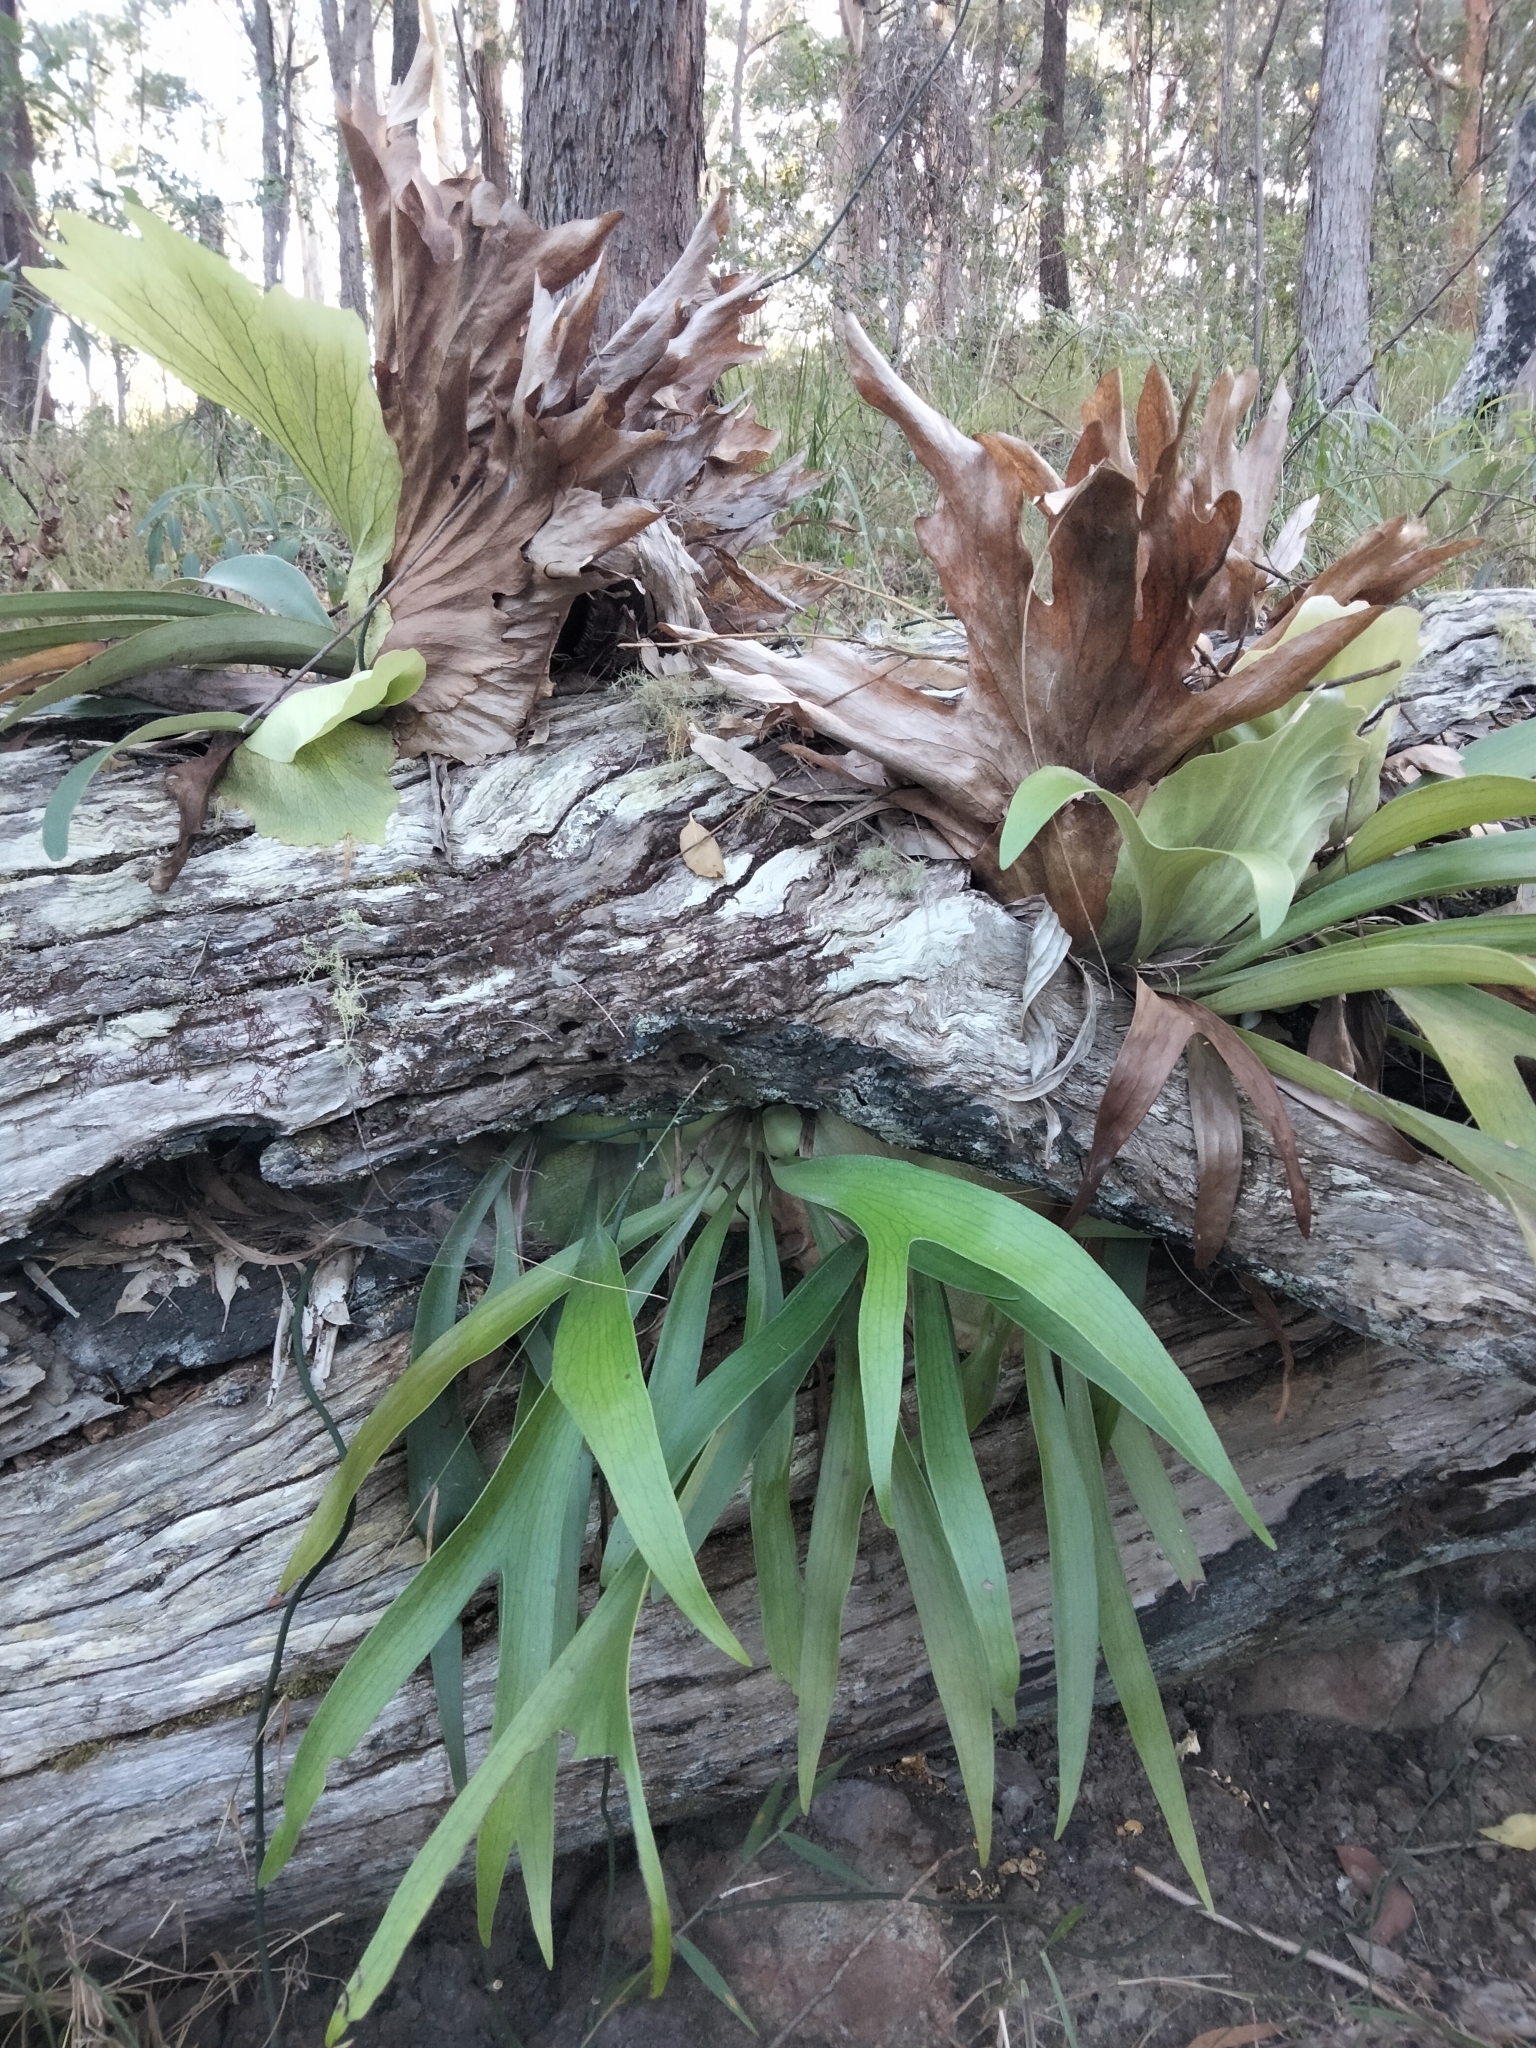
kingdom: Plantae
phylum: Tracheophyta
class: Polypodiopsida
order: Polypodiales
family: Polypodiaceae
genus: Platycerium
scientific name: Platycerium bifurcatum
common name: Elkhorn fern
